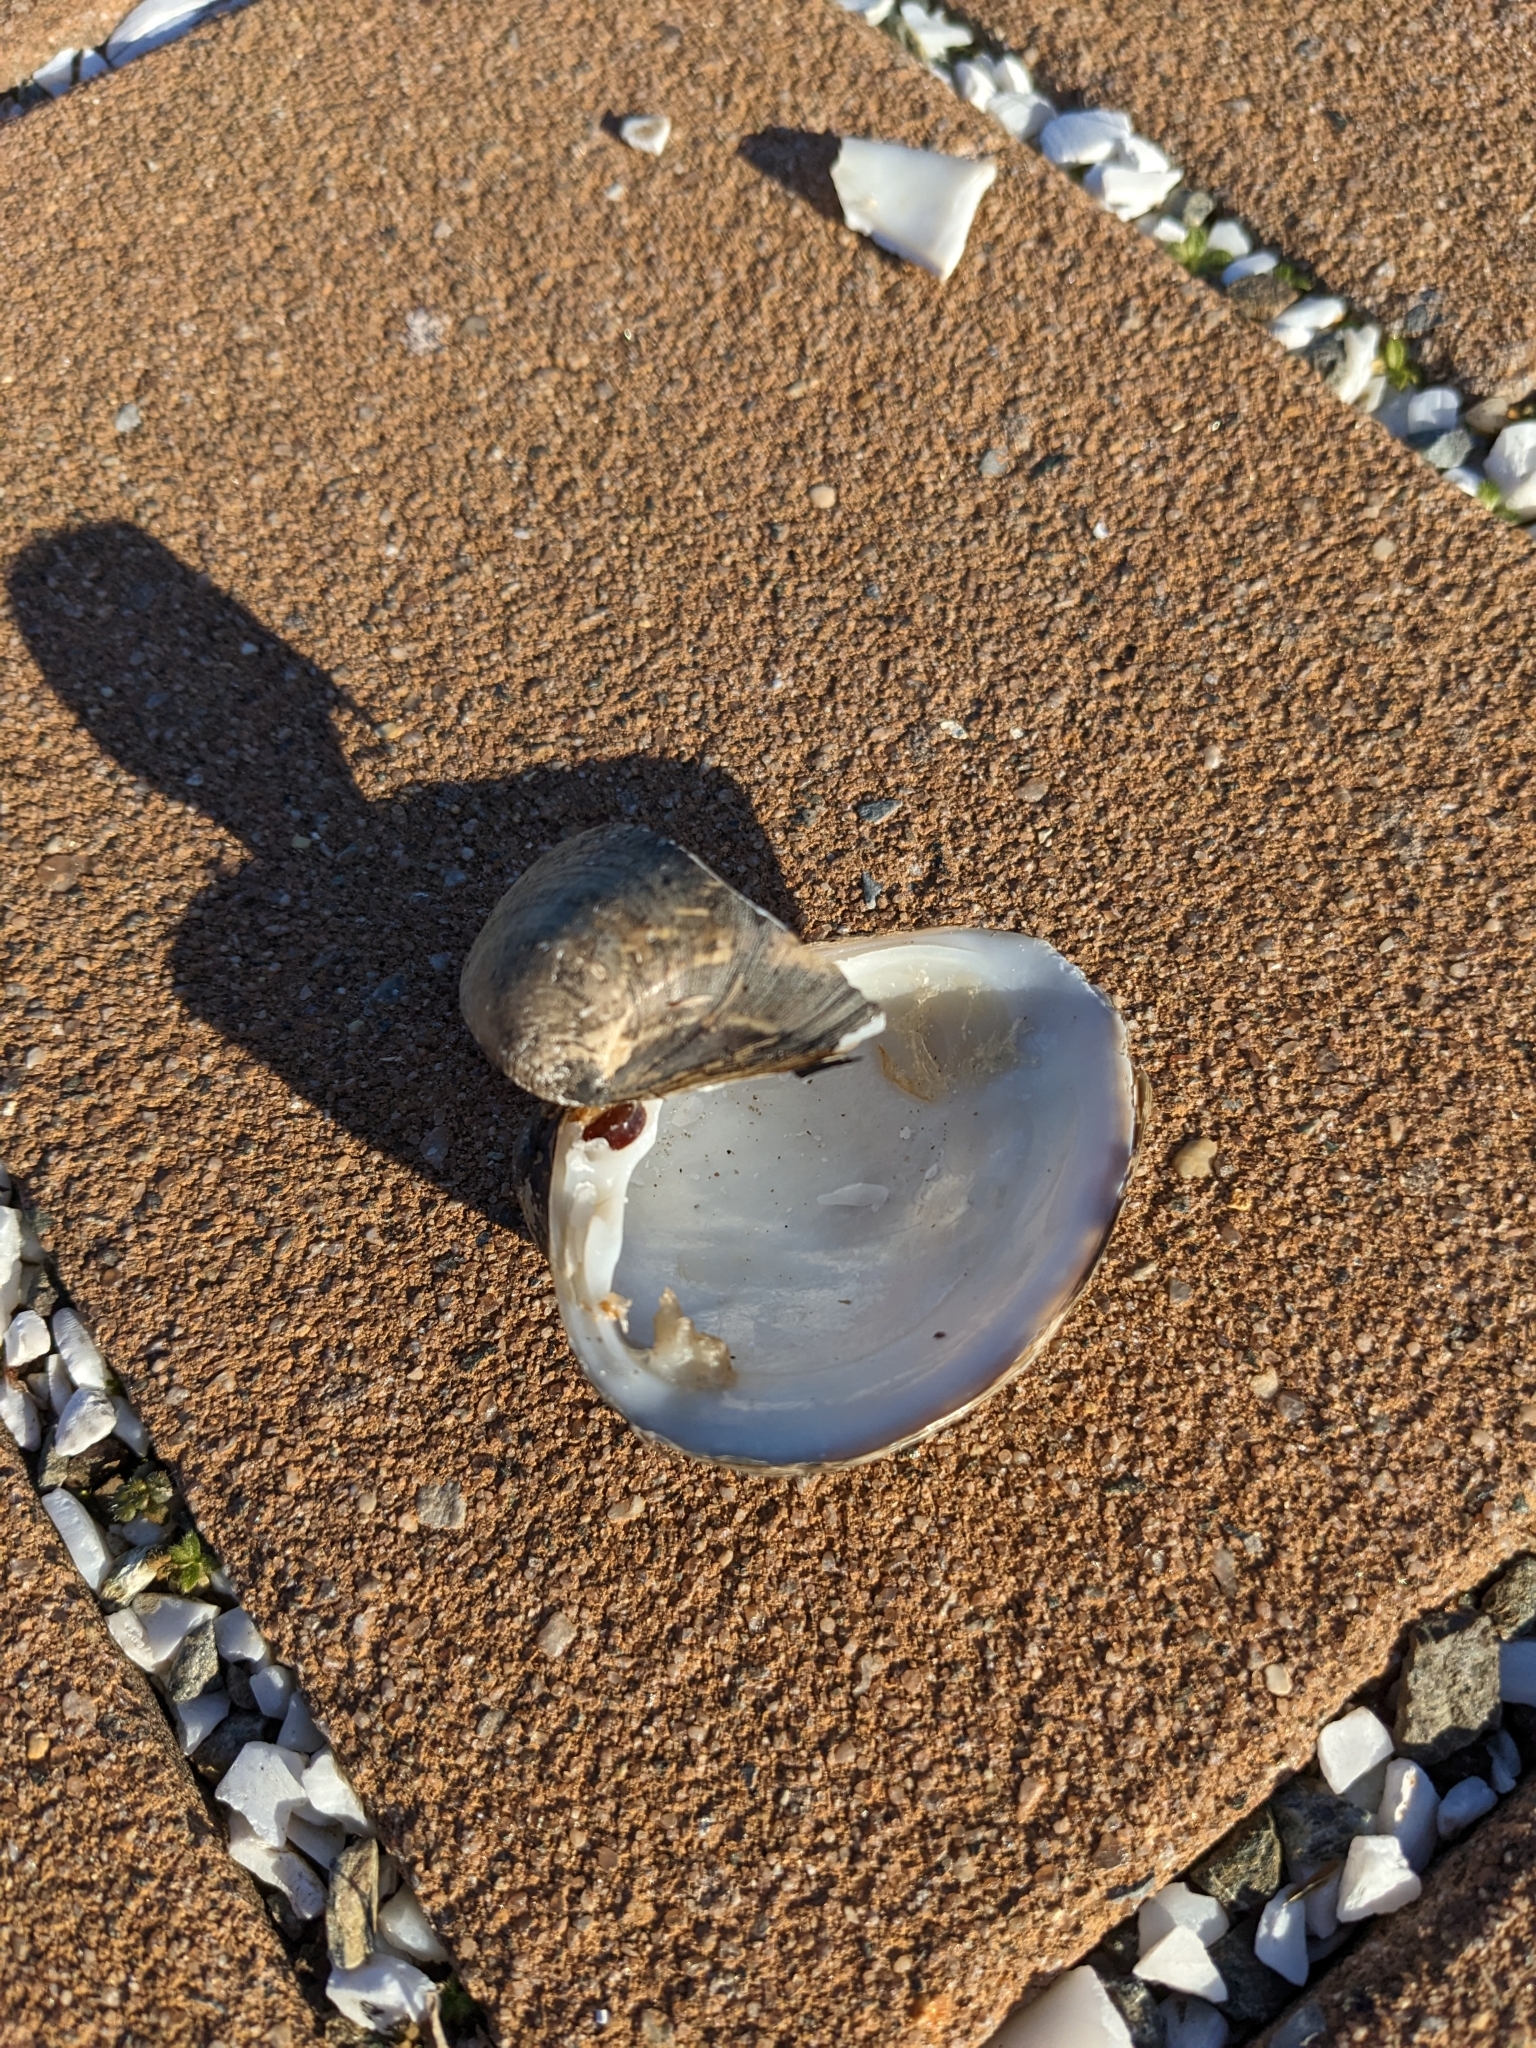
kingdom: Animalia
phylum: Mollusca
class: Bivalvia
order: Venerida
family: Mactridae
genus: Rangia
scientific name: Rangia cuneata
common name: Atlantic rangia
